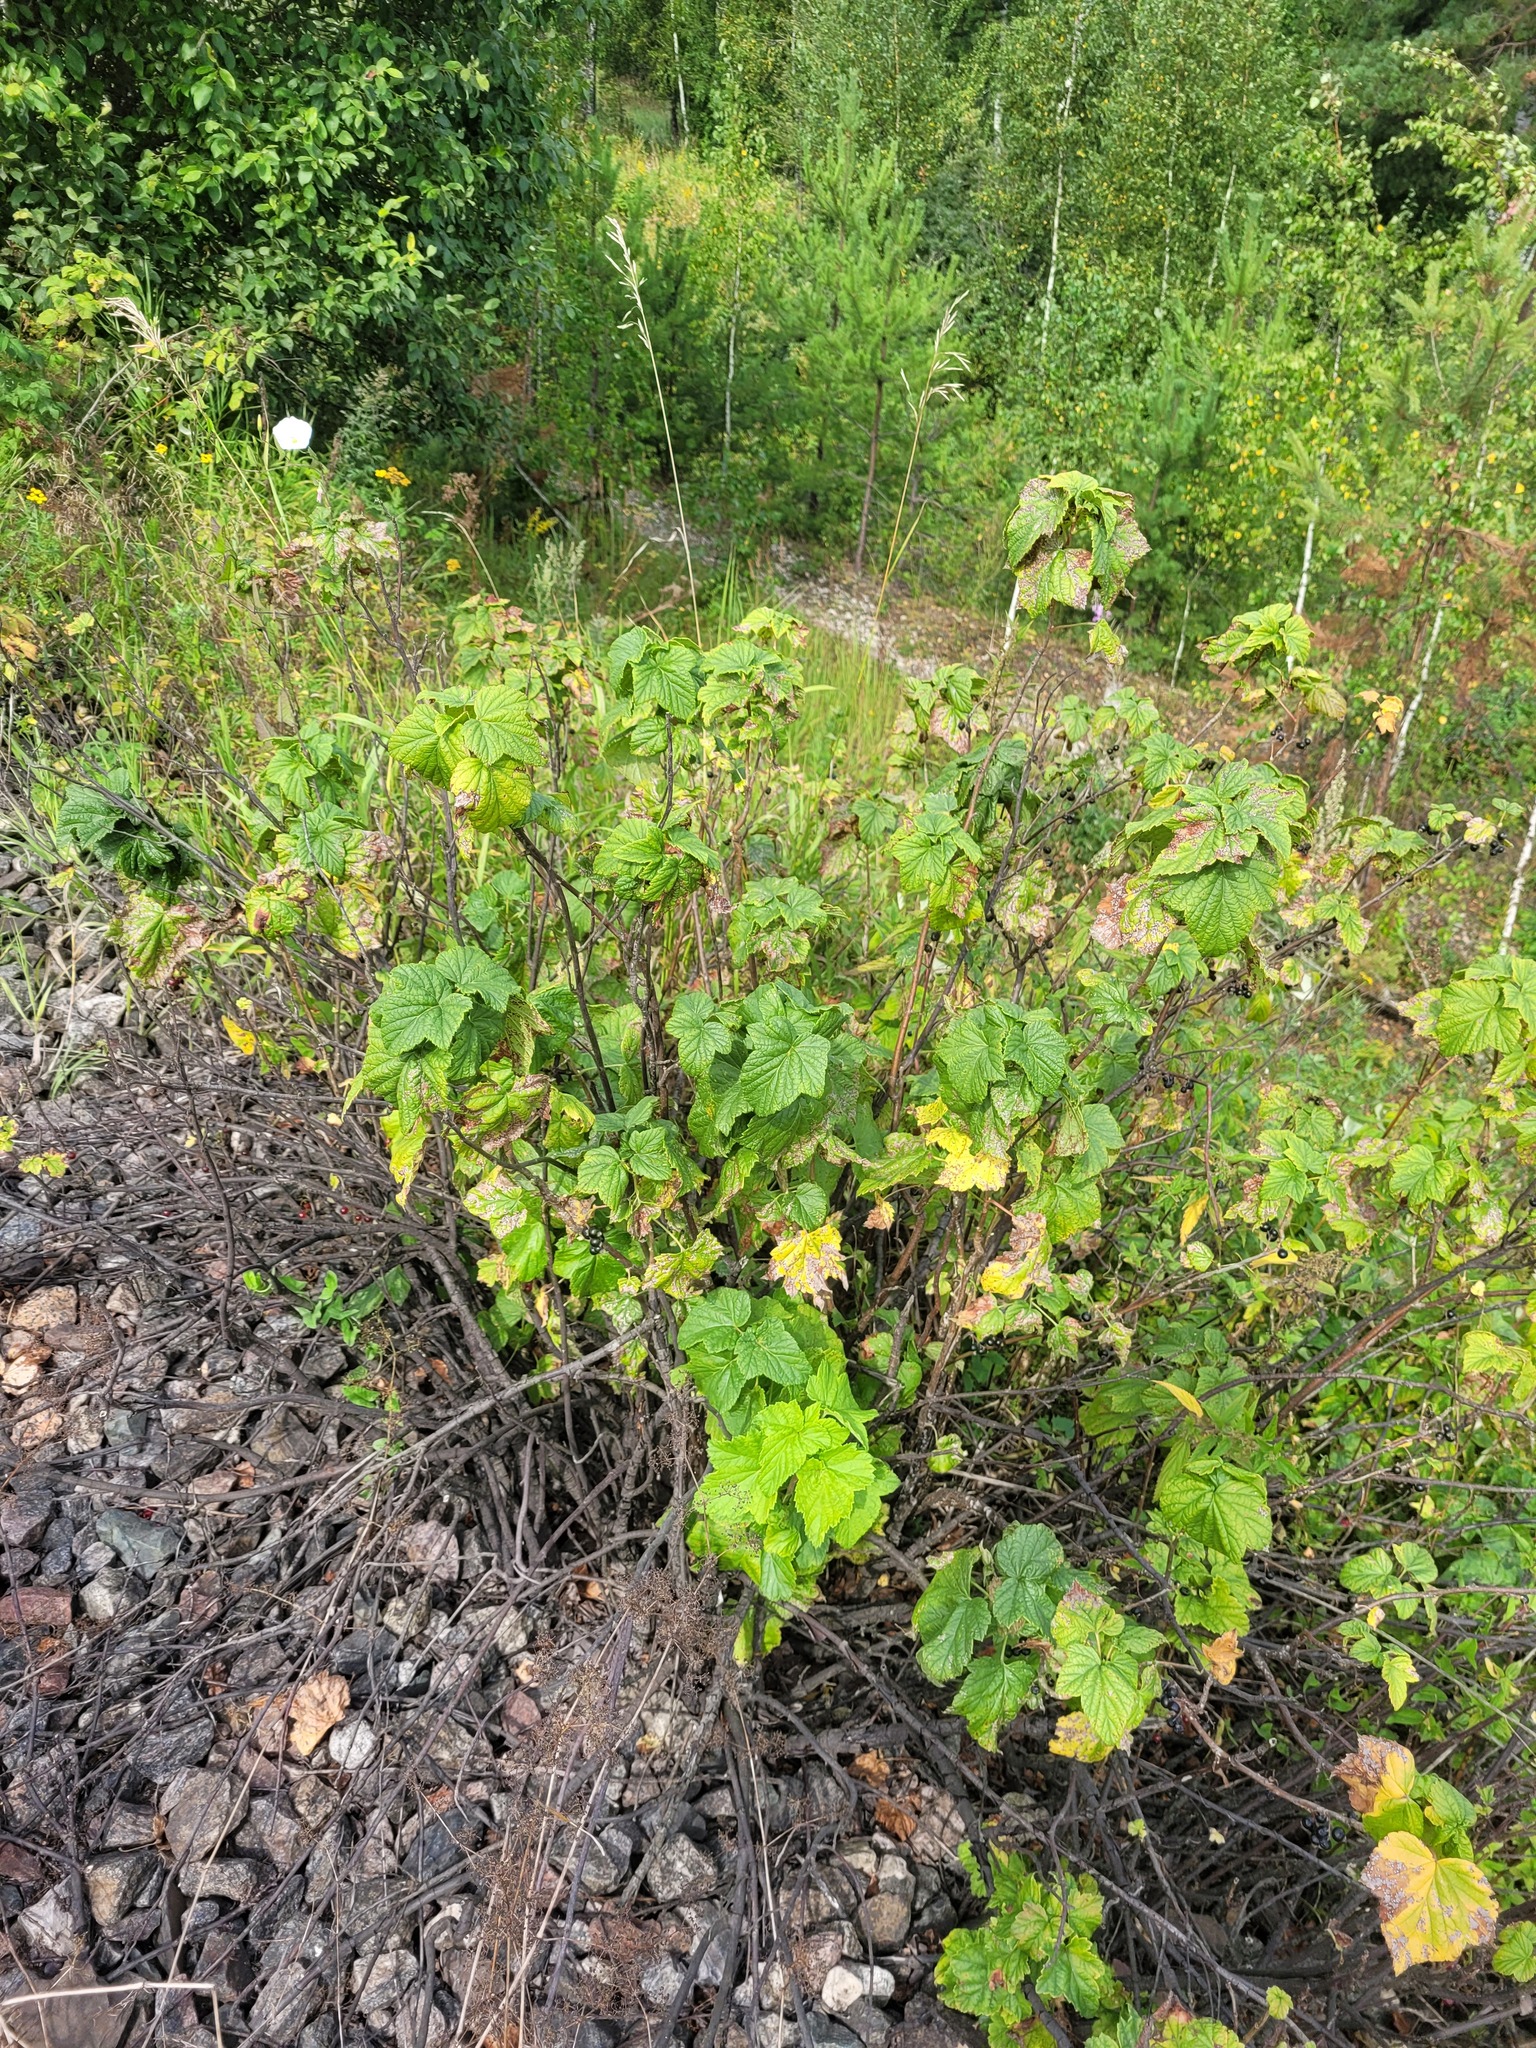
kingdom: Plantae
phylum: Tracheophyta
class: Magnoliopsida
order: Saxifragales
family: Grossulariaceae
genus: Ribes
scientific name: Ribes nigrum
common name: Black currant
